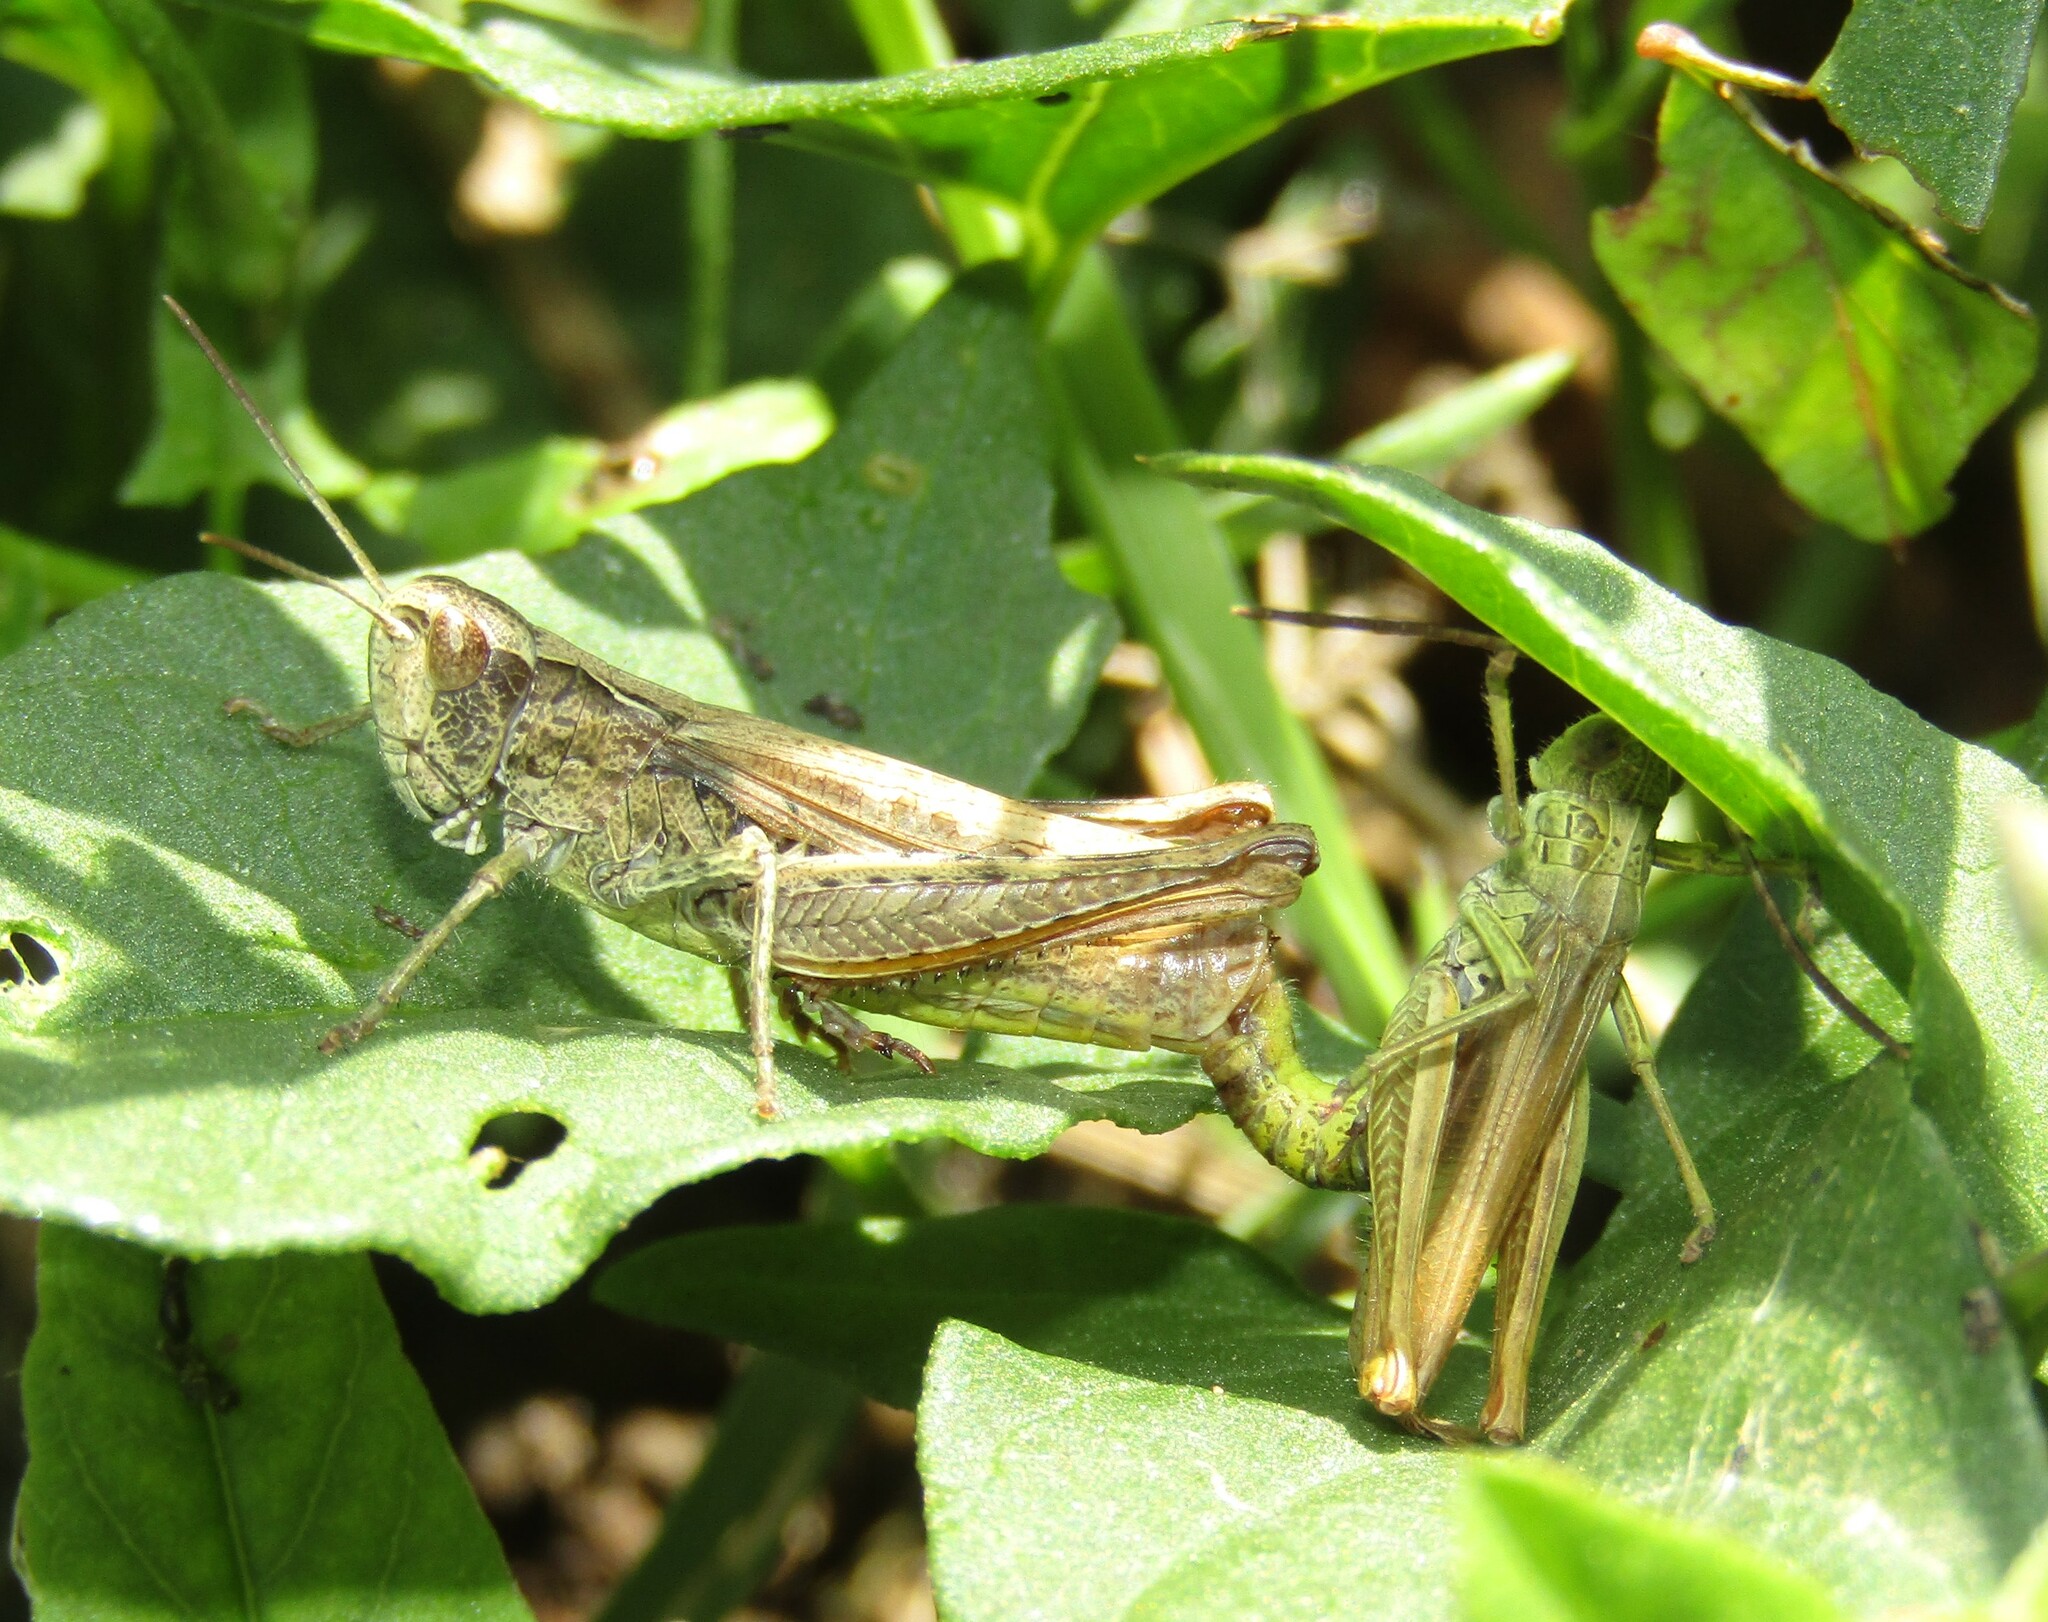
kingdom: Animalia
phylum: Arthropoda
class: Insecta
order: Orthoptera
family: Acrididae
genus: Chorthippus
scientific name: Chorthippus apricarius
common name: Upland field grasshopper
